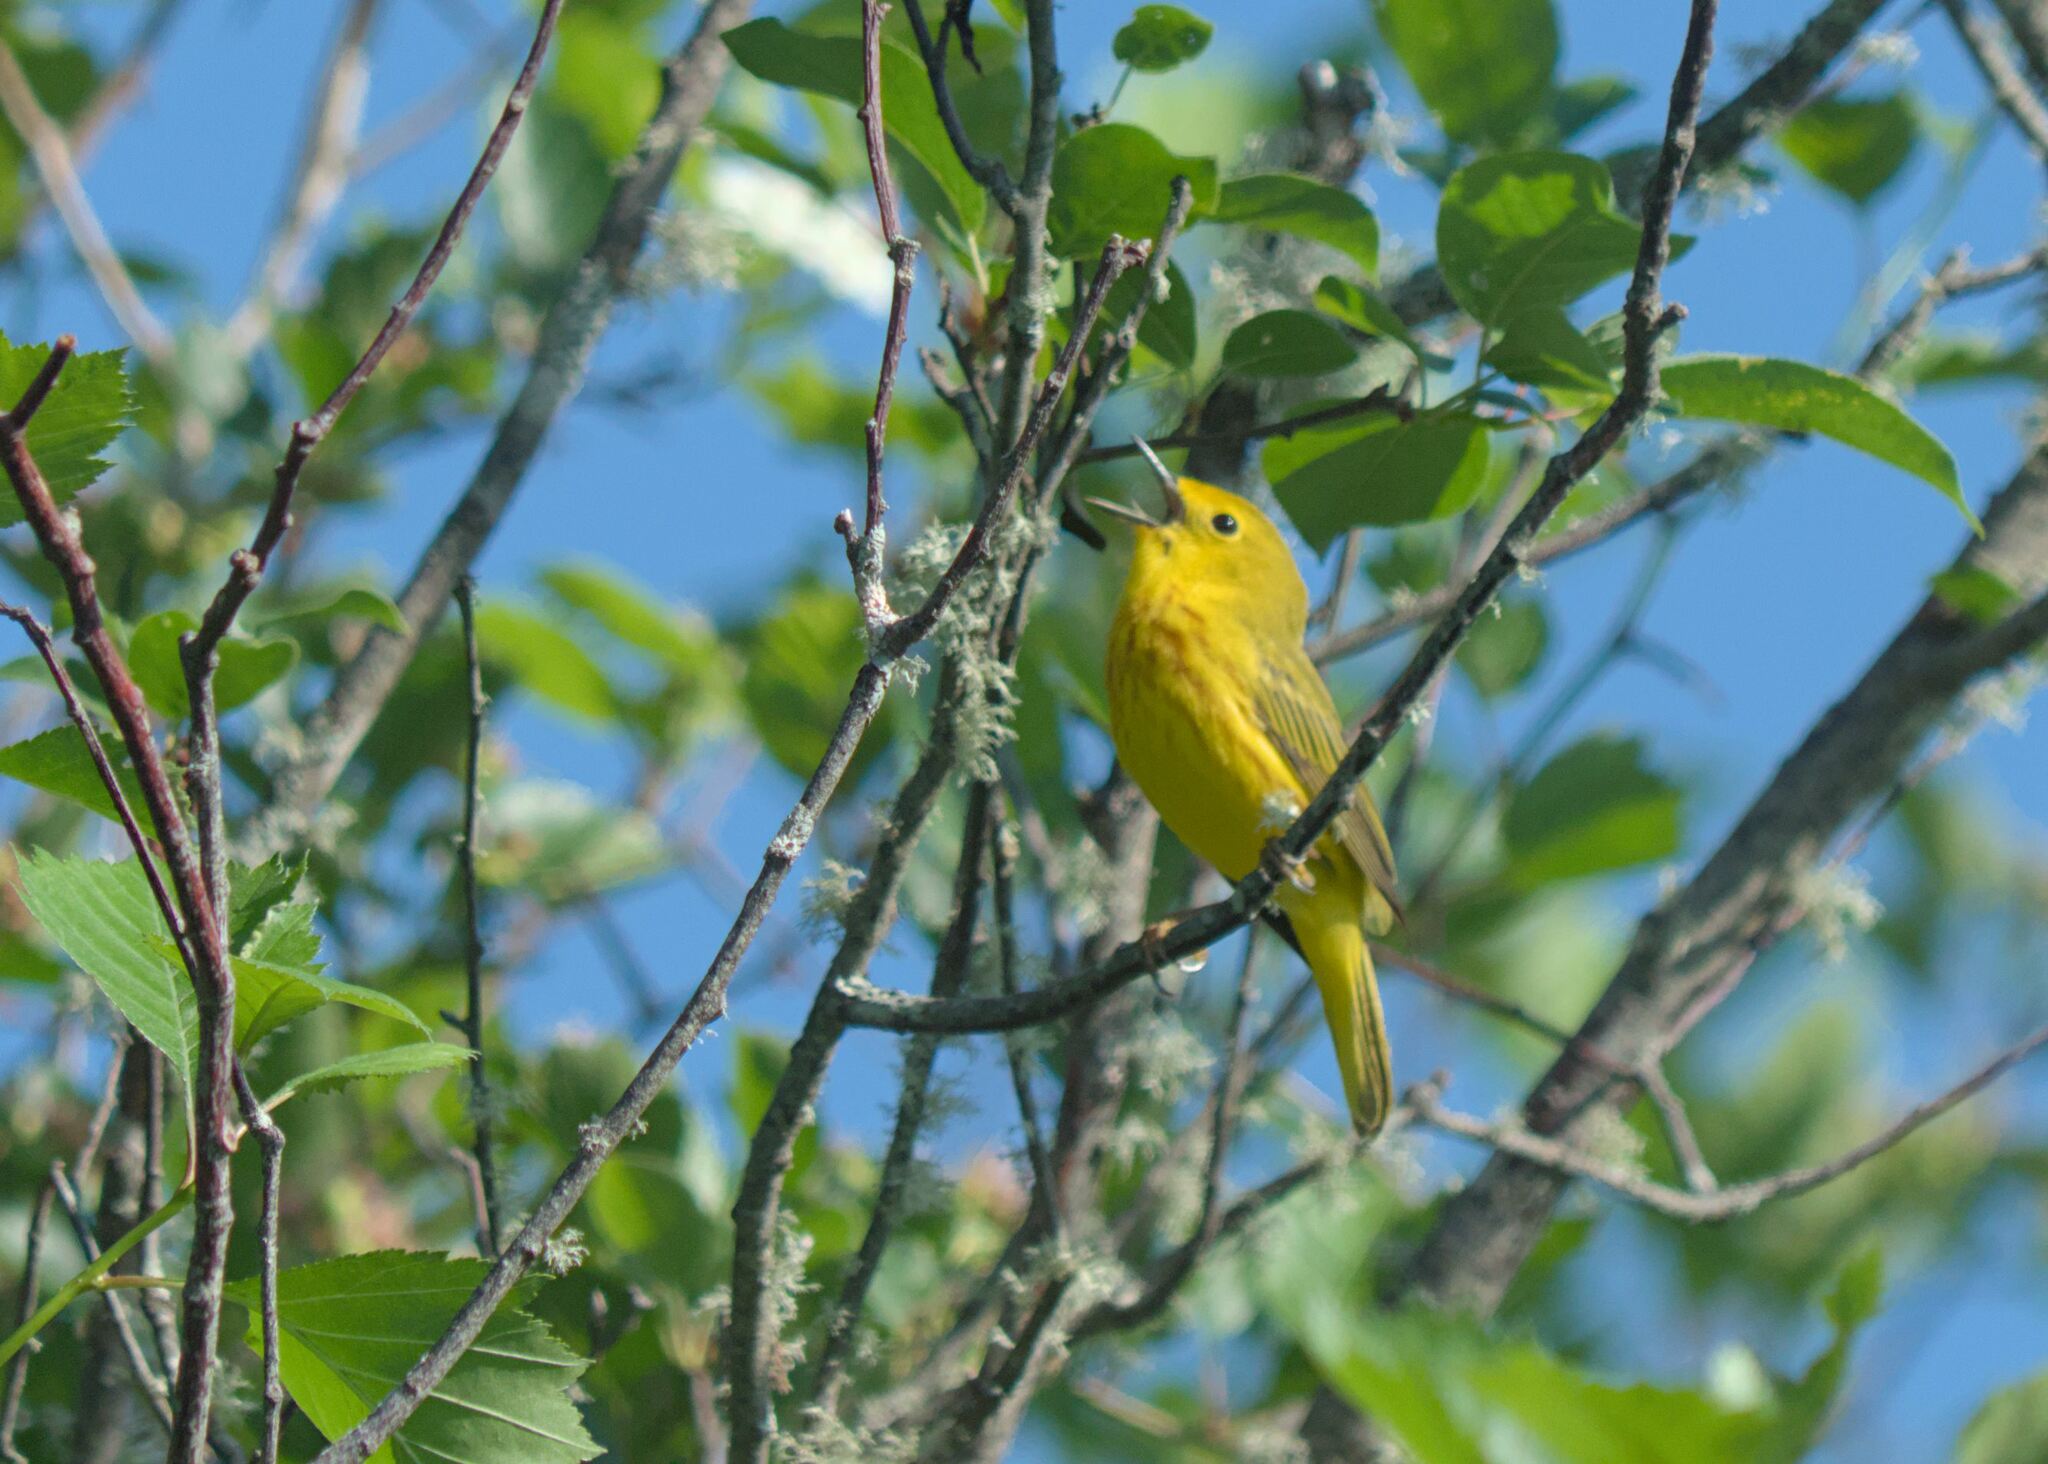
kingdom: Animalia
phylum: Chordata
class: Aves
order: Passeriformes
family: Parulidae
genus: Setophaga
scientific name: Setophaga petechia
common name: Yellow warbler
